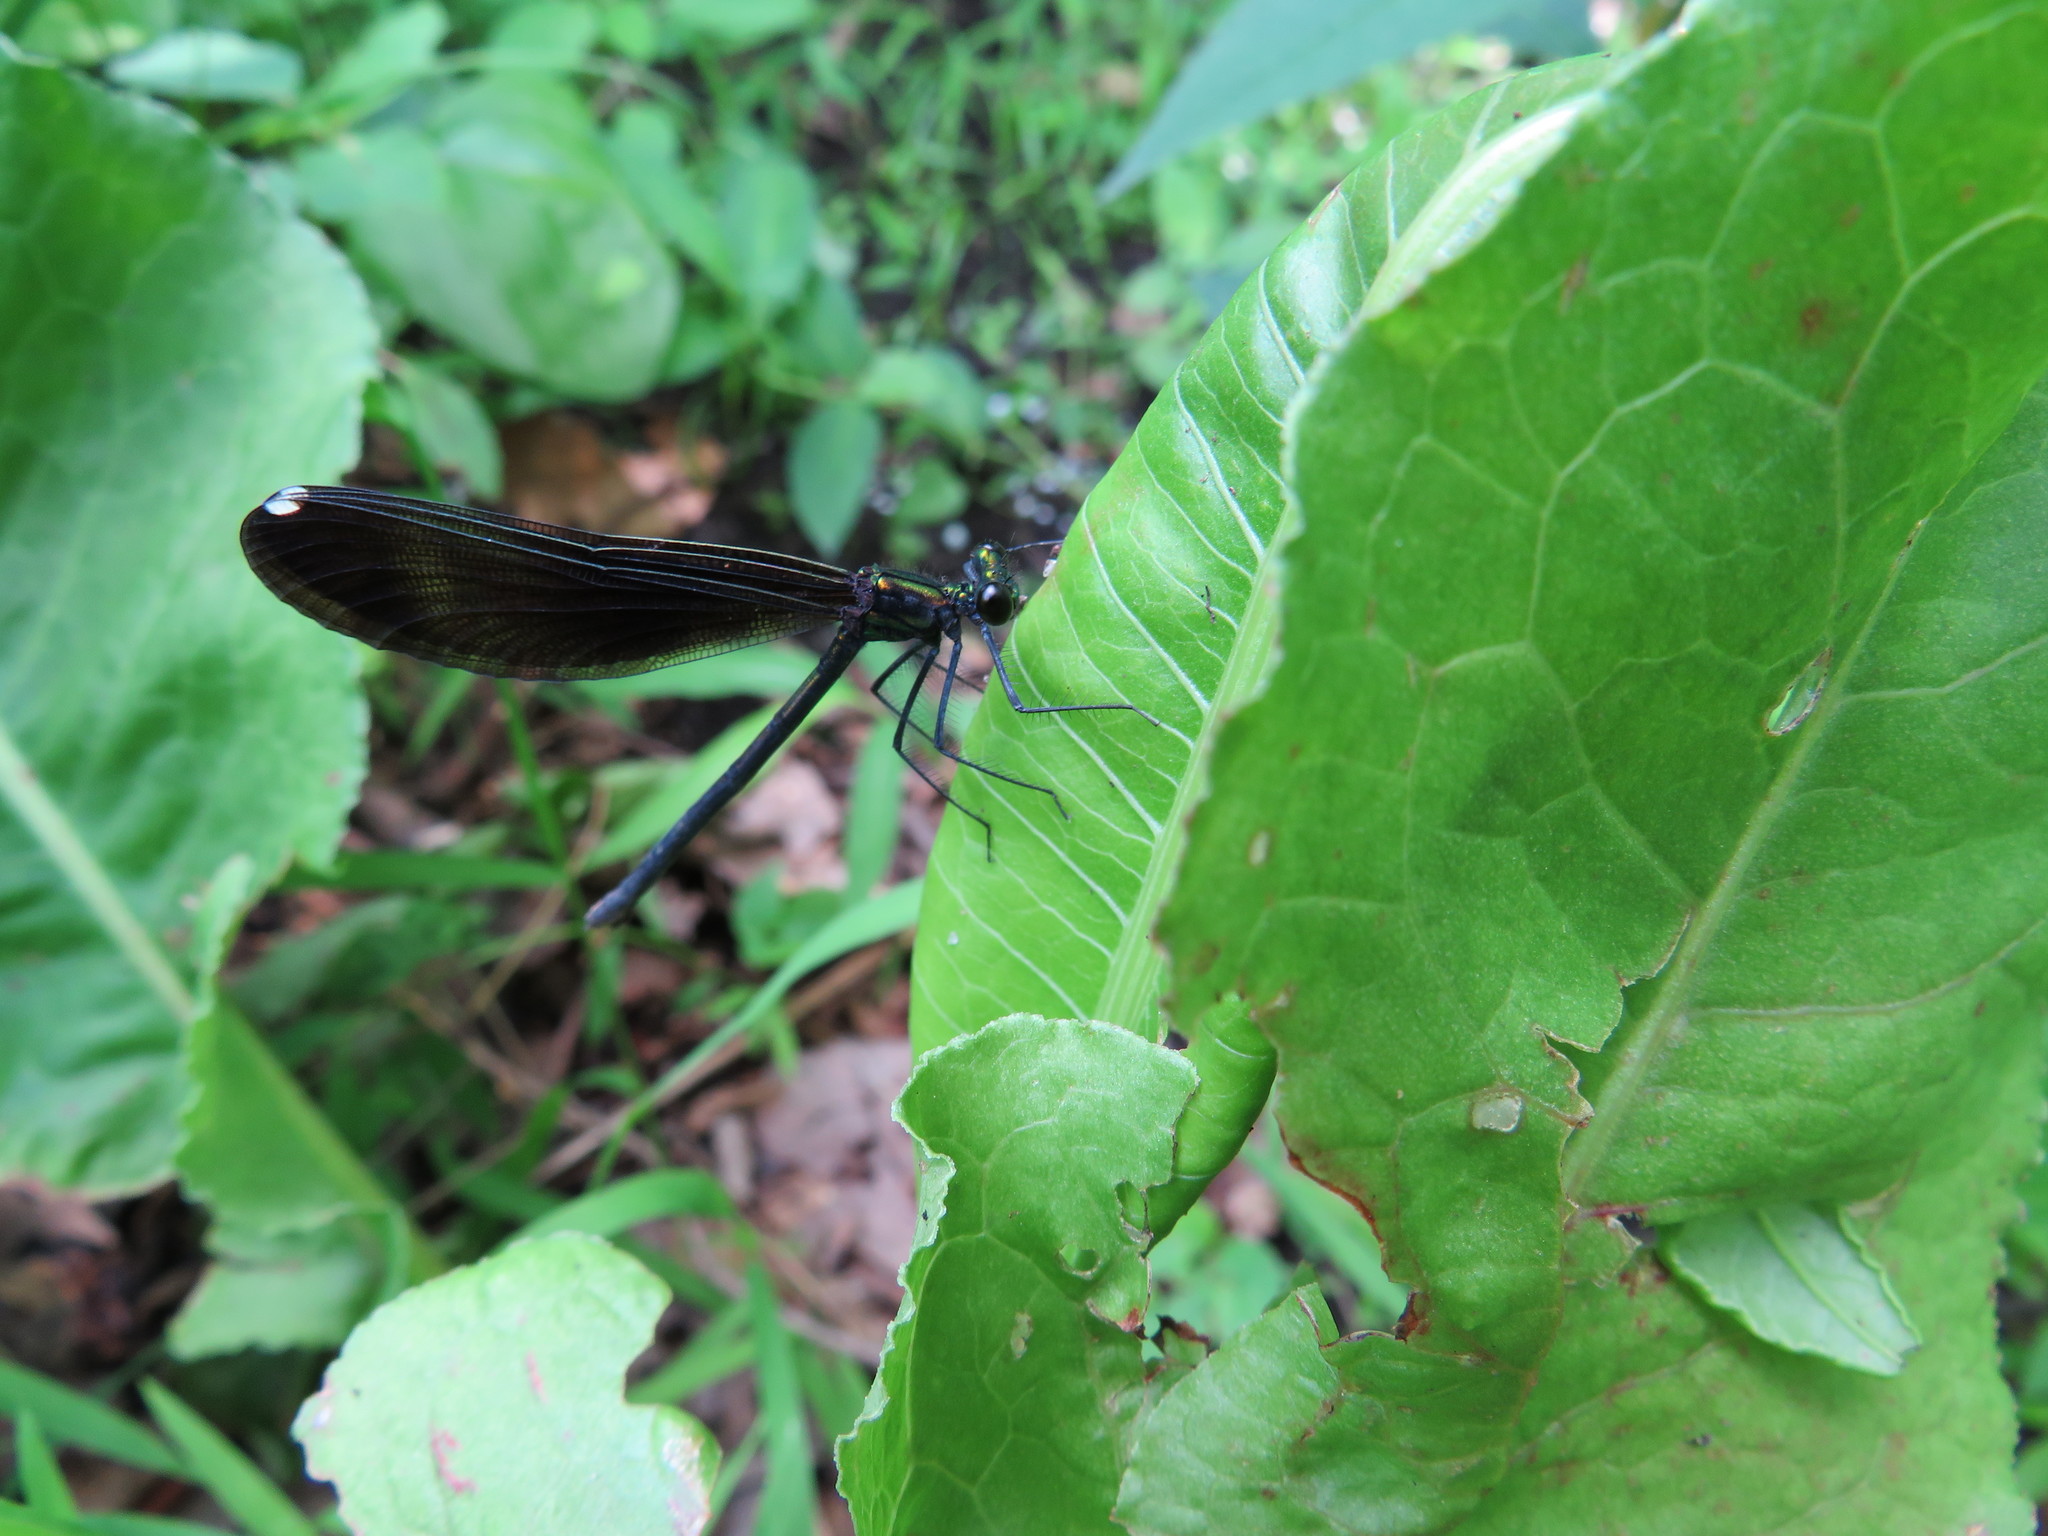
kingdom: Animalia
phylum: Arthropoda
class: Insecta
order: Odonata
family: Calopterygidae
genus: Calopteryx
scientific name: Calopteryx maculata
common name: Ebony jewelwing
